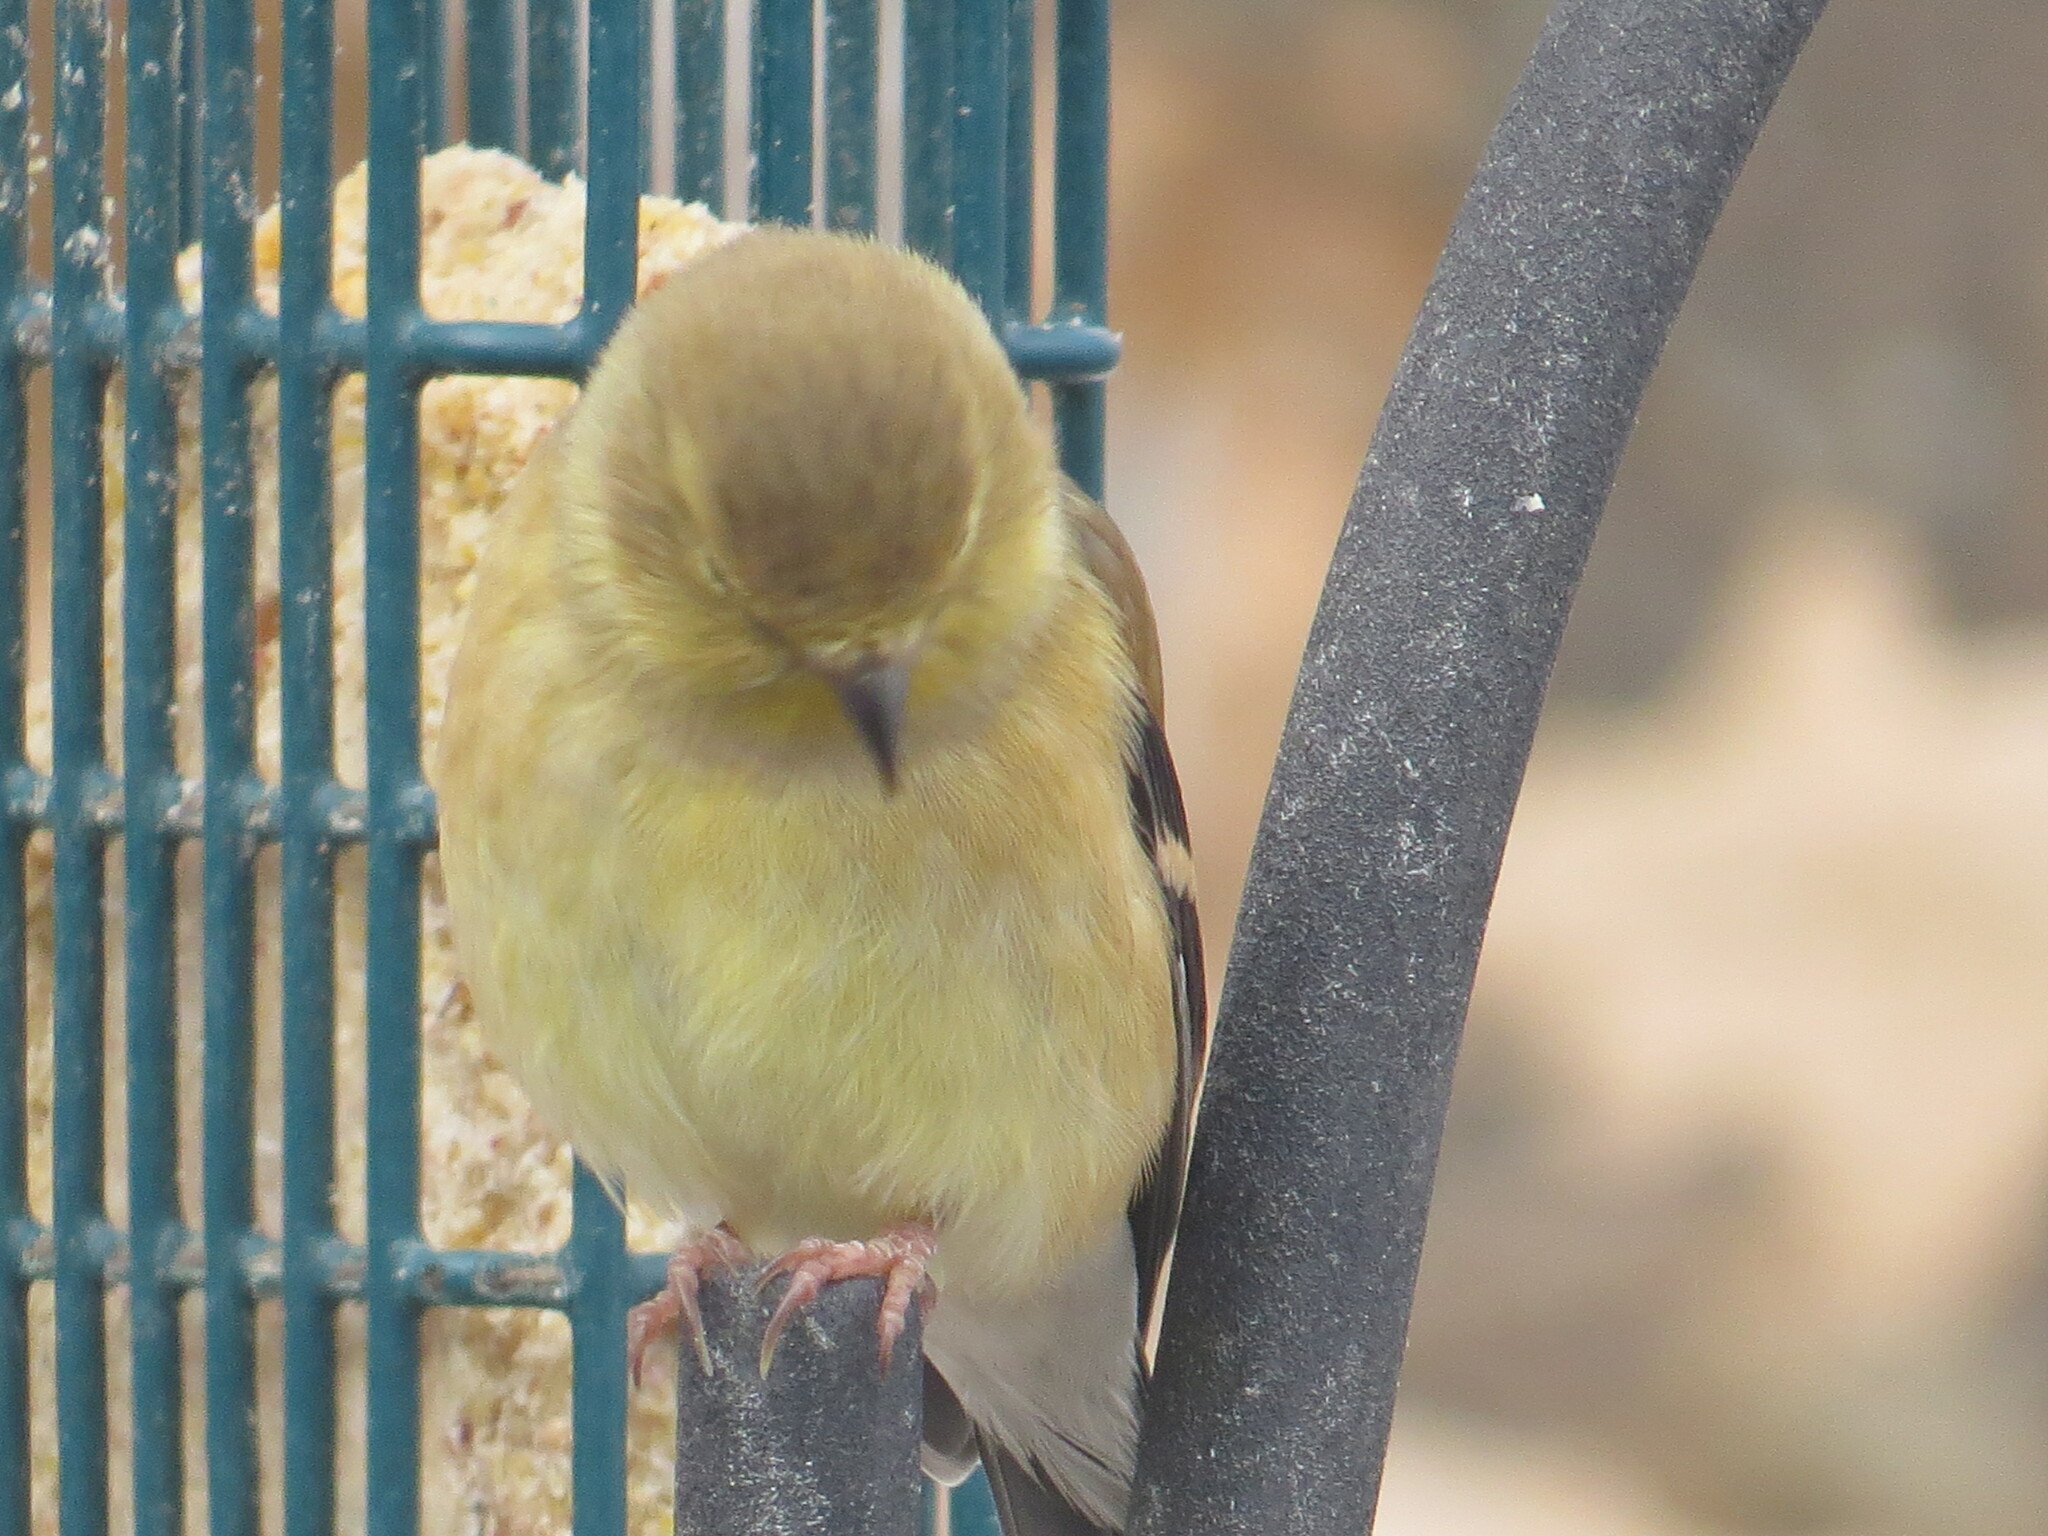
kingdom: Animalia
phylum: Chordata
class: Aves
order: Passeriformes
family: Fringillidae
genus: Spinus
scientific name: Spinus tristis
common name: American goldfinch
